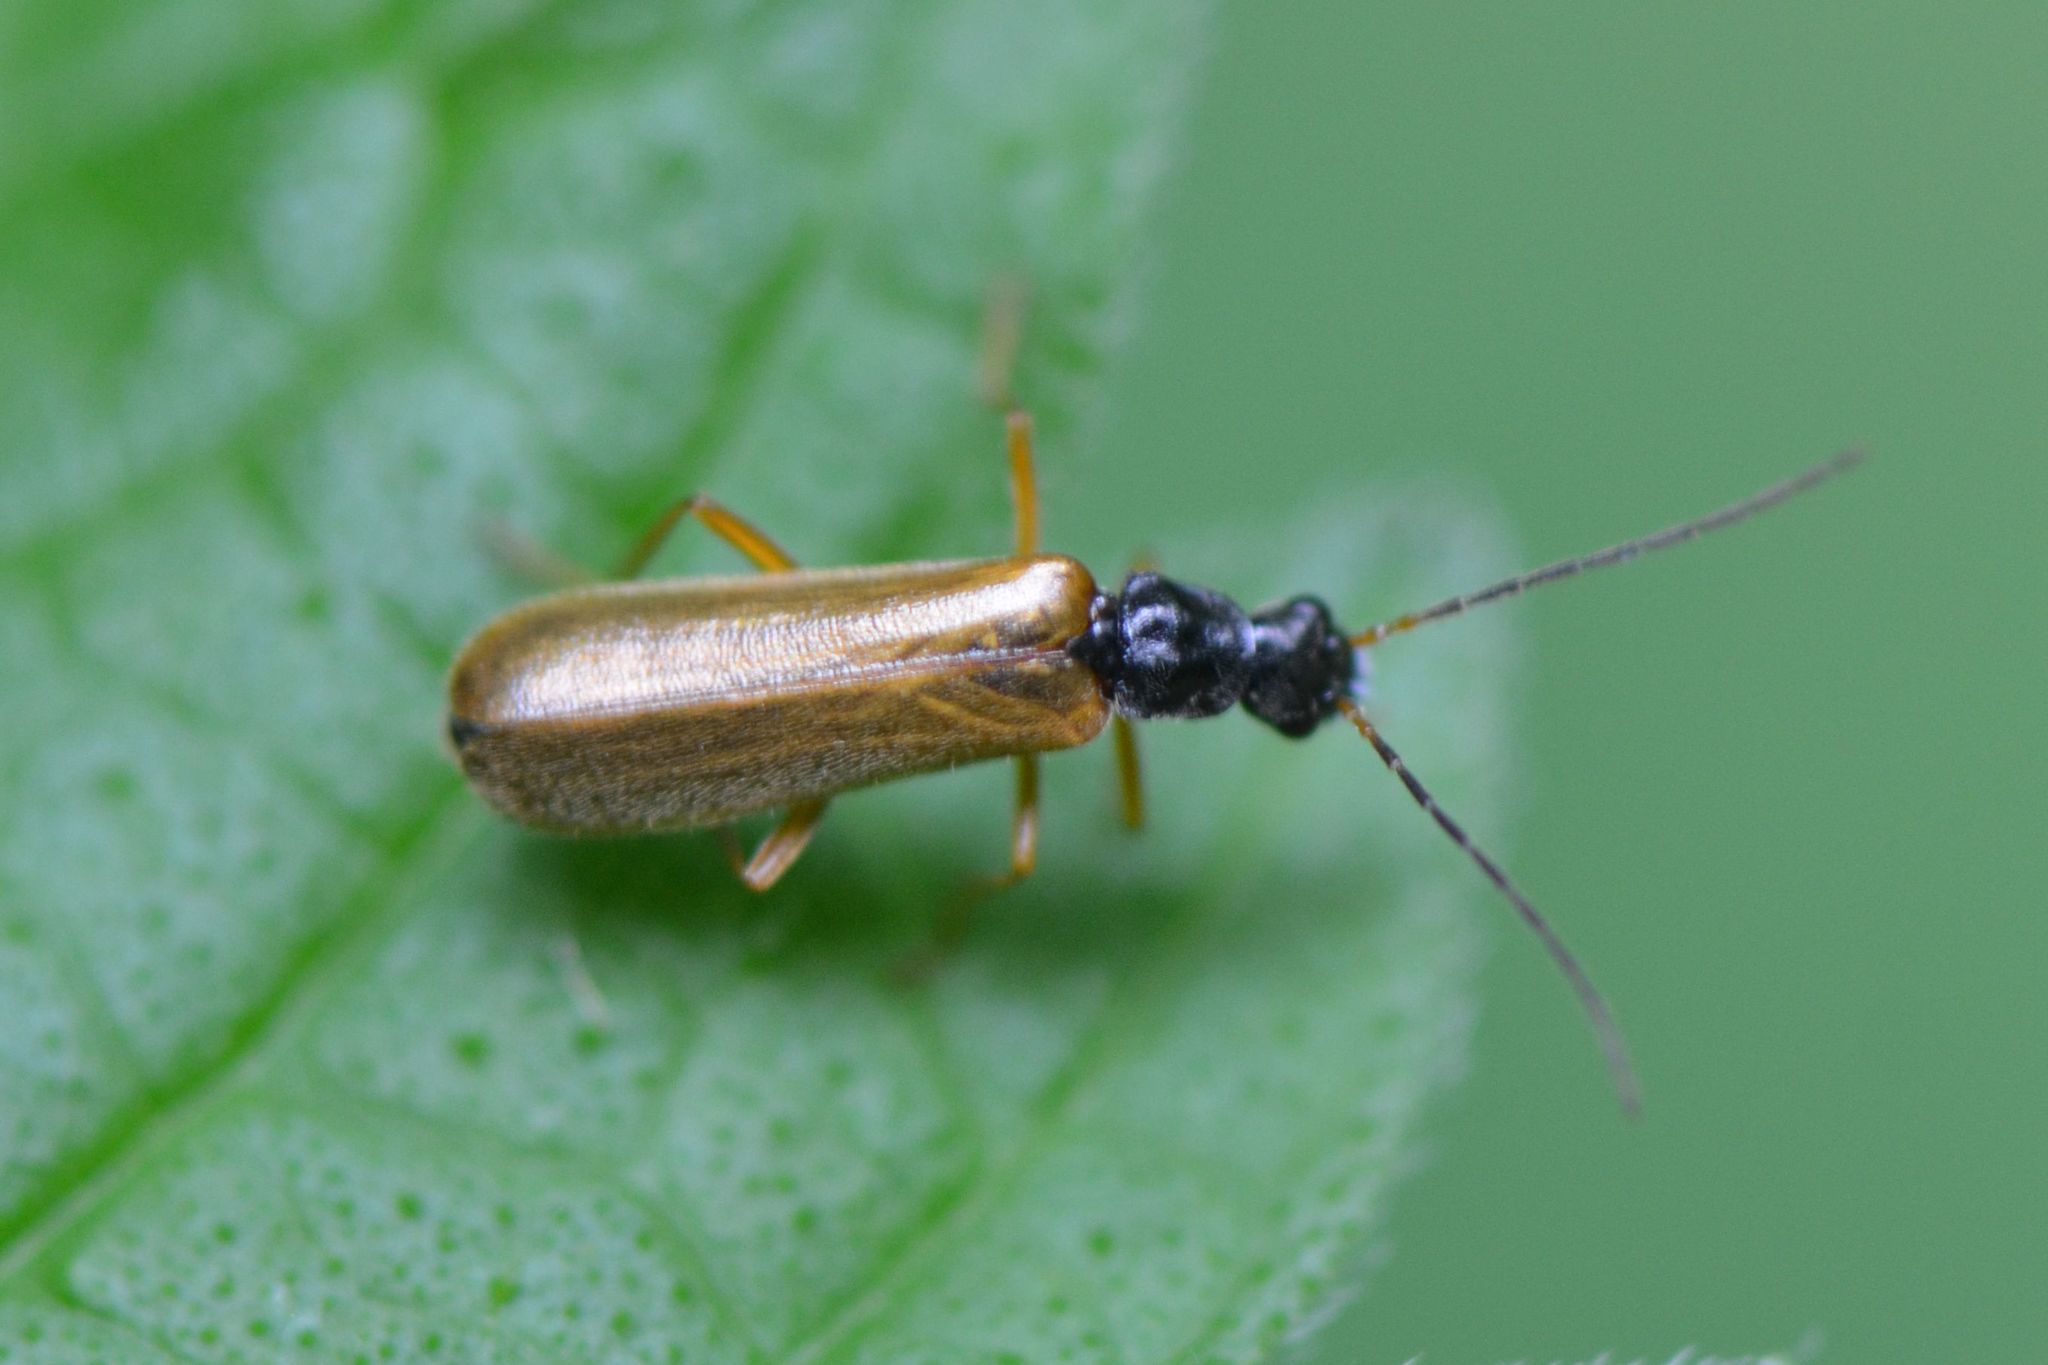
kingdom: Animalia
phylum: Arthropoda
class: Insecta
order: Coleoptera
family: Cantharidae
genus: Rhagonycha
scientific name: Rhagonycha lignosa
